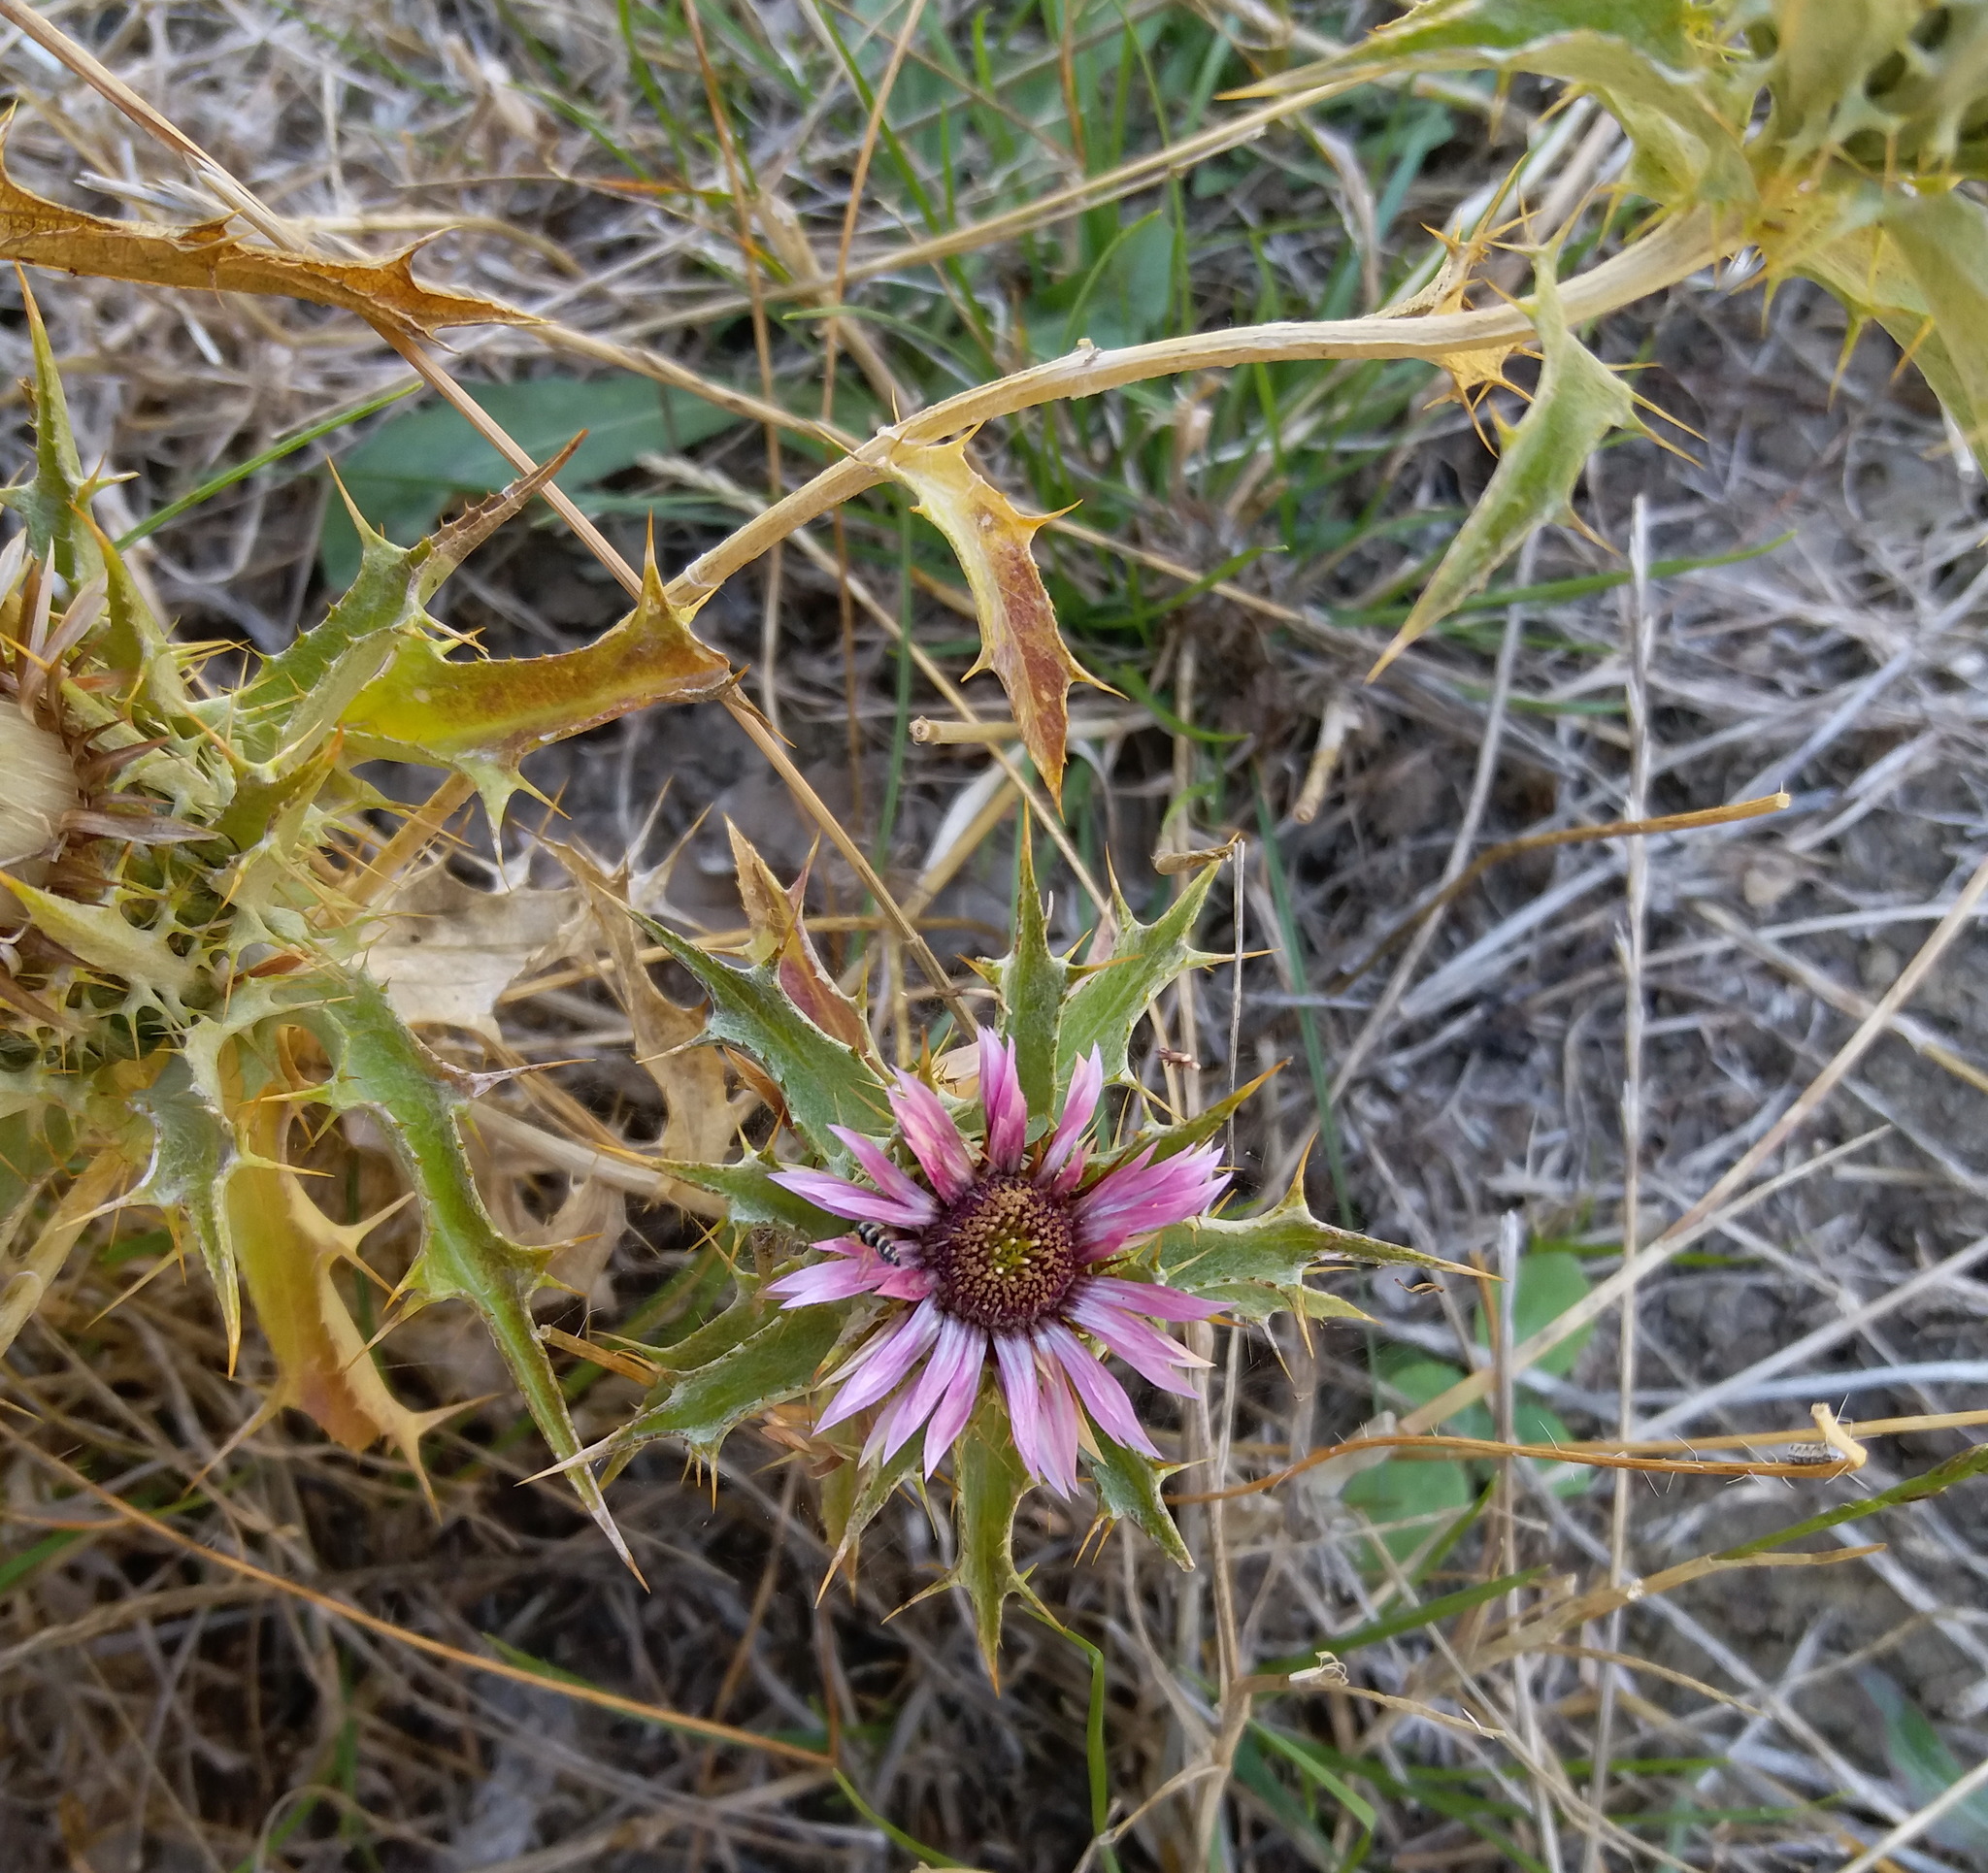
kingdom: Plantae
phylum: Tracheophyta
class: Magnoliopsida
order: Asterales
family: Asteraceae
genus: Carlina
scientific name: Carlina lanata
